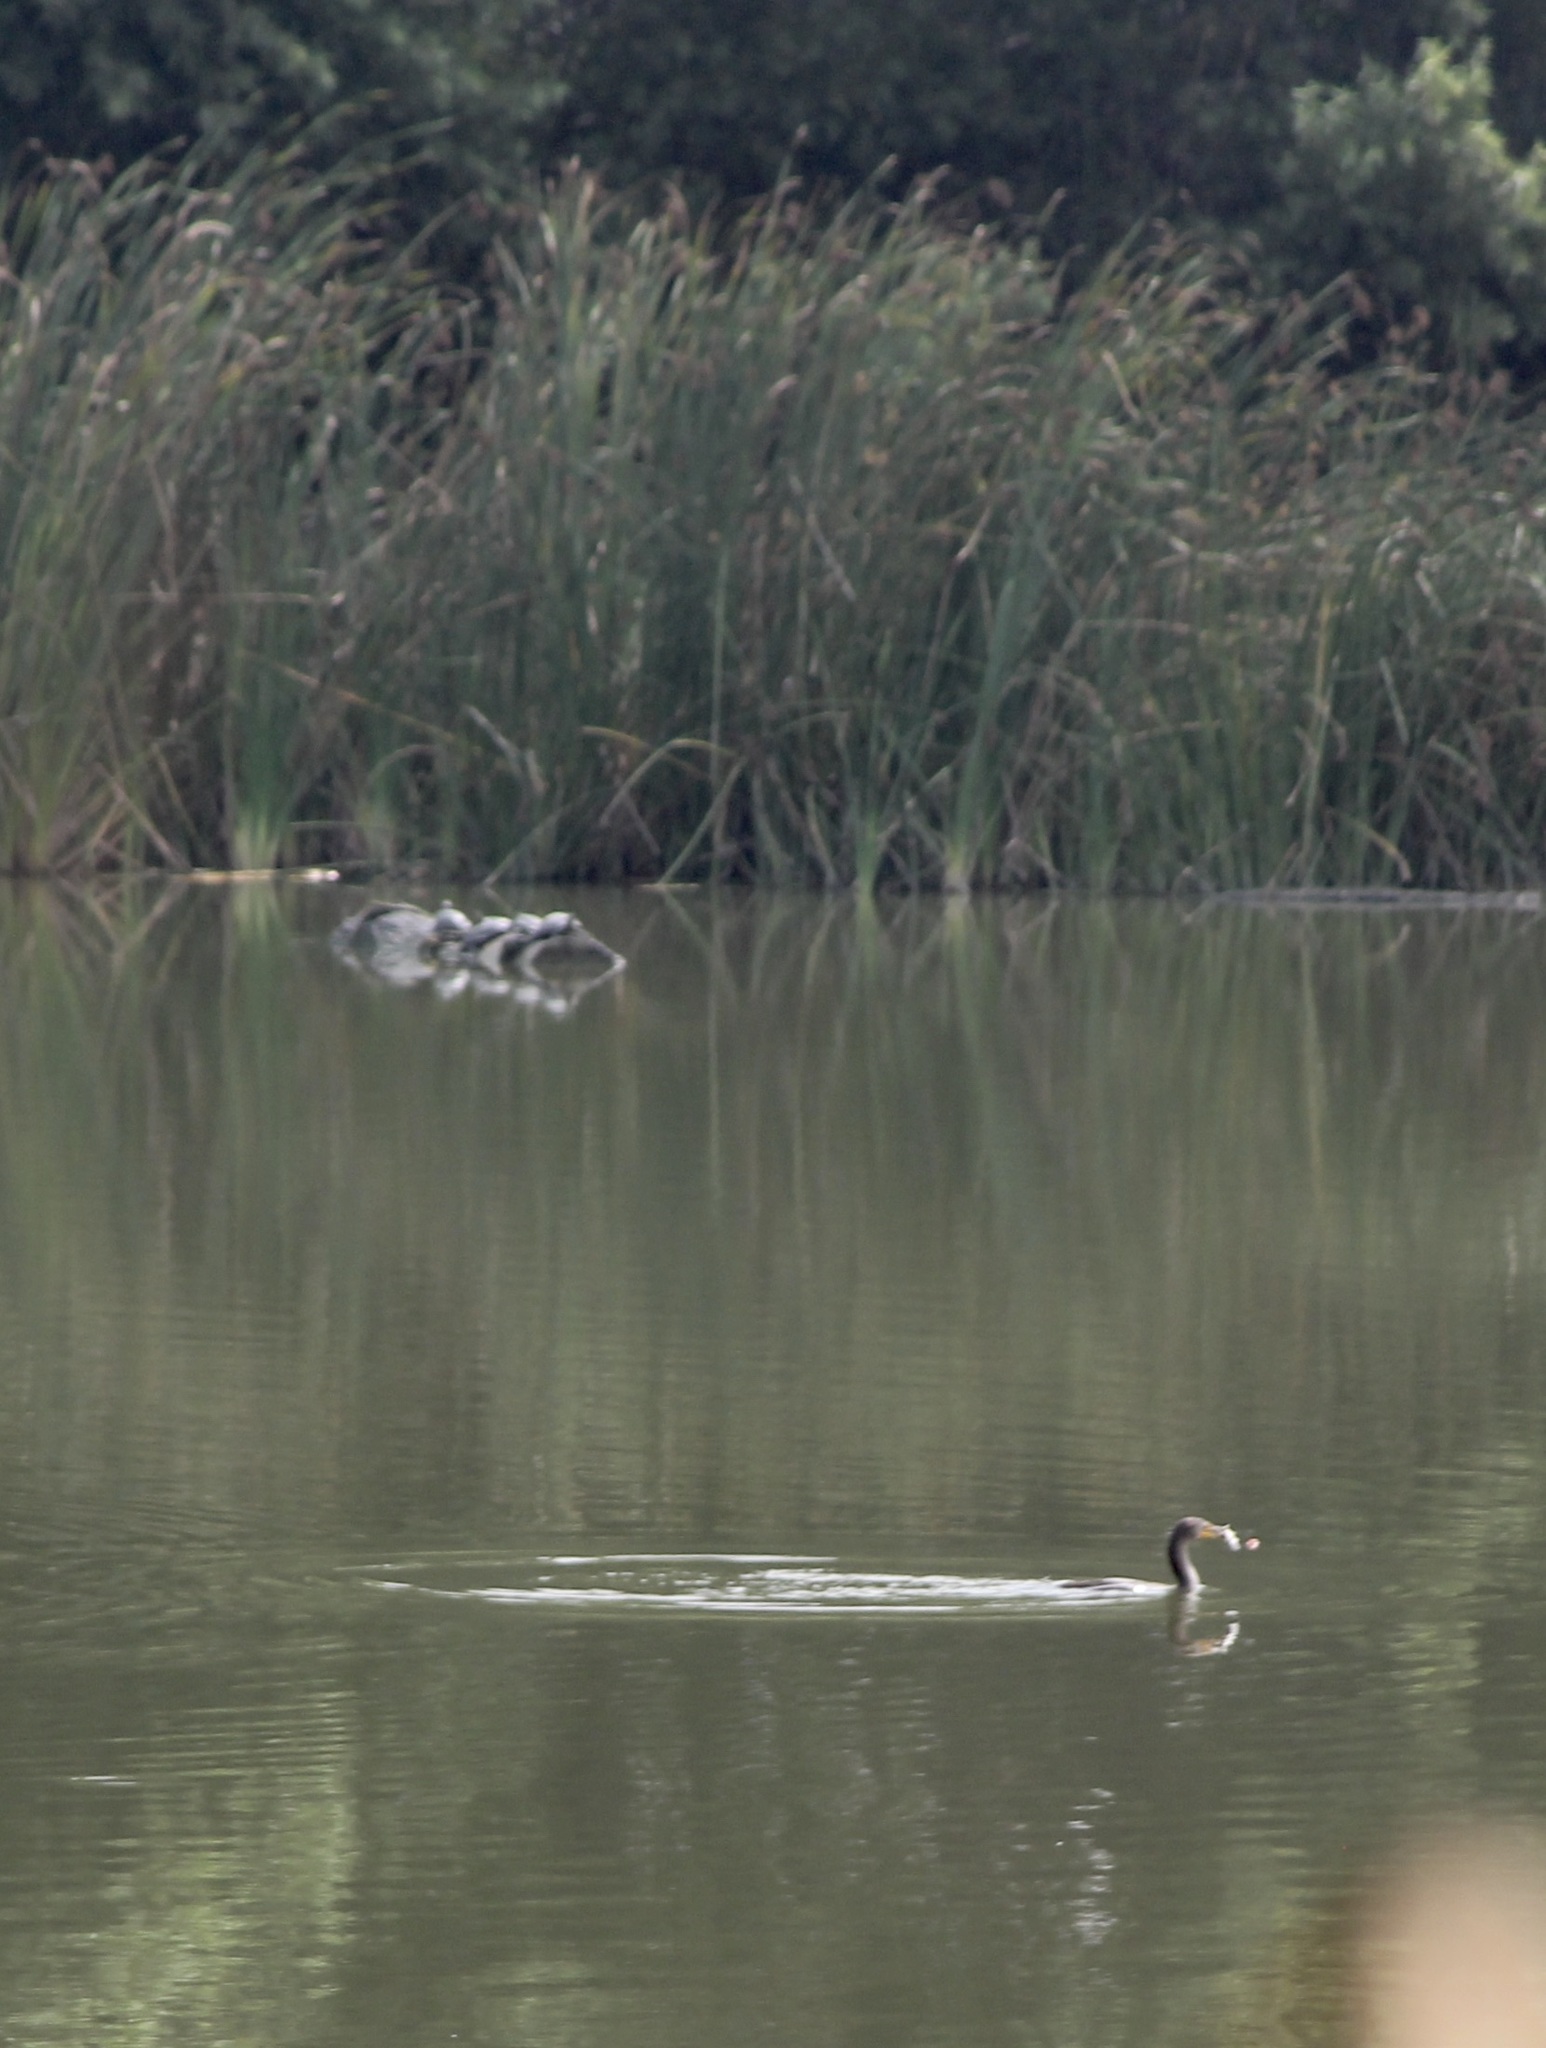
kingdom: Animalia
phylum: Chordata
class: Aves
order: Suliformes
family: Phalacrocoracidae
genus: Phalacrocorax
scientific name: Phalacrocorax auritus
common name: Double-crested cormorant
